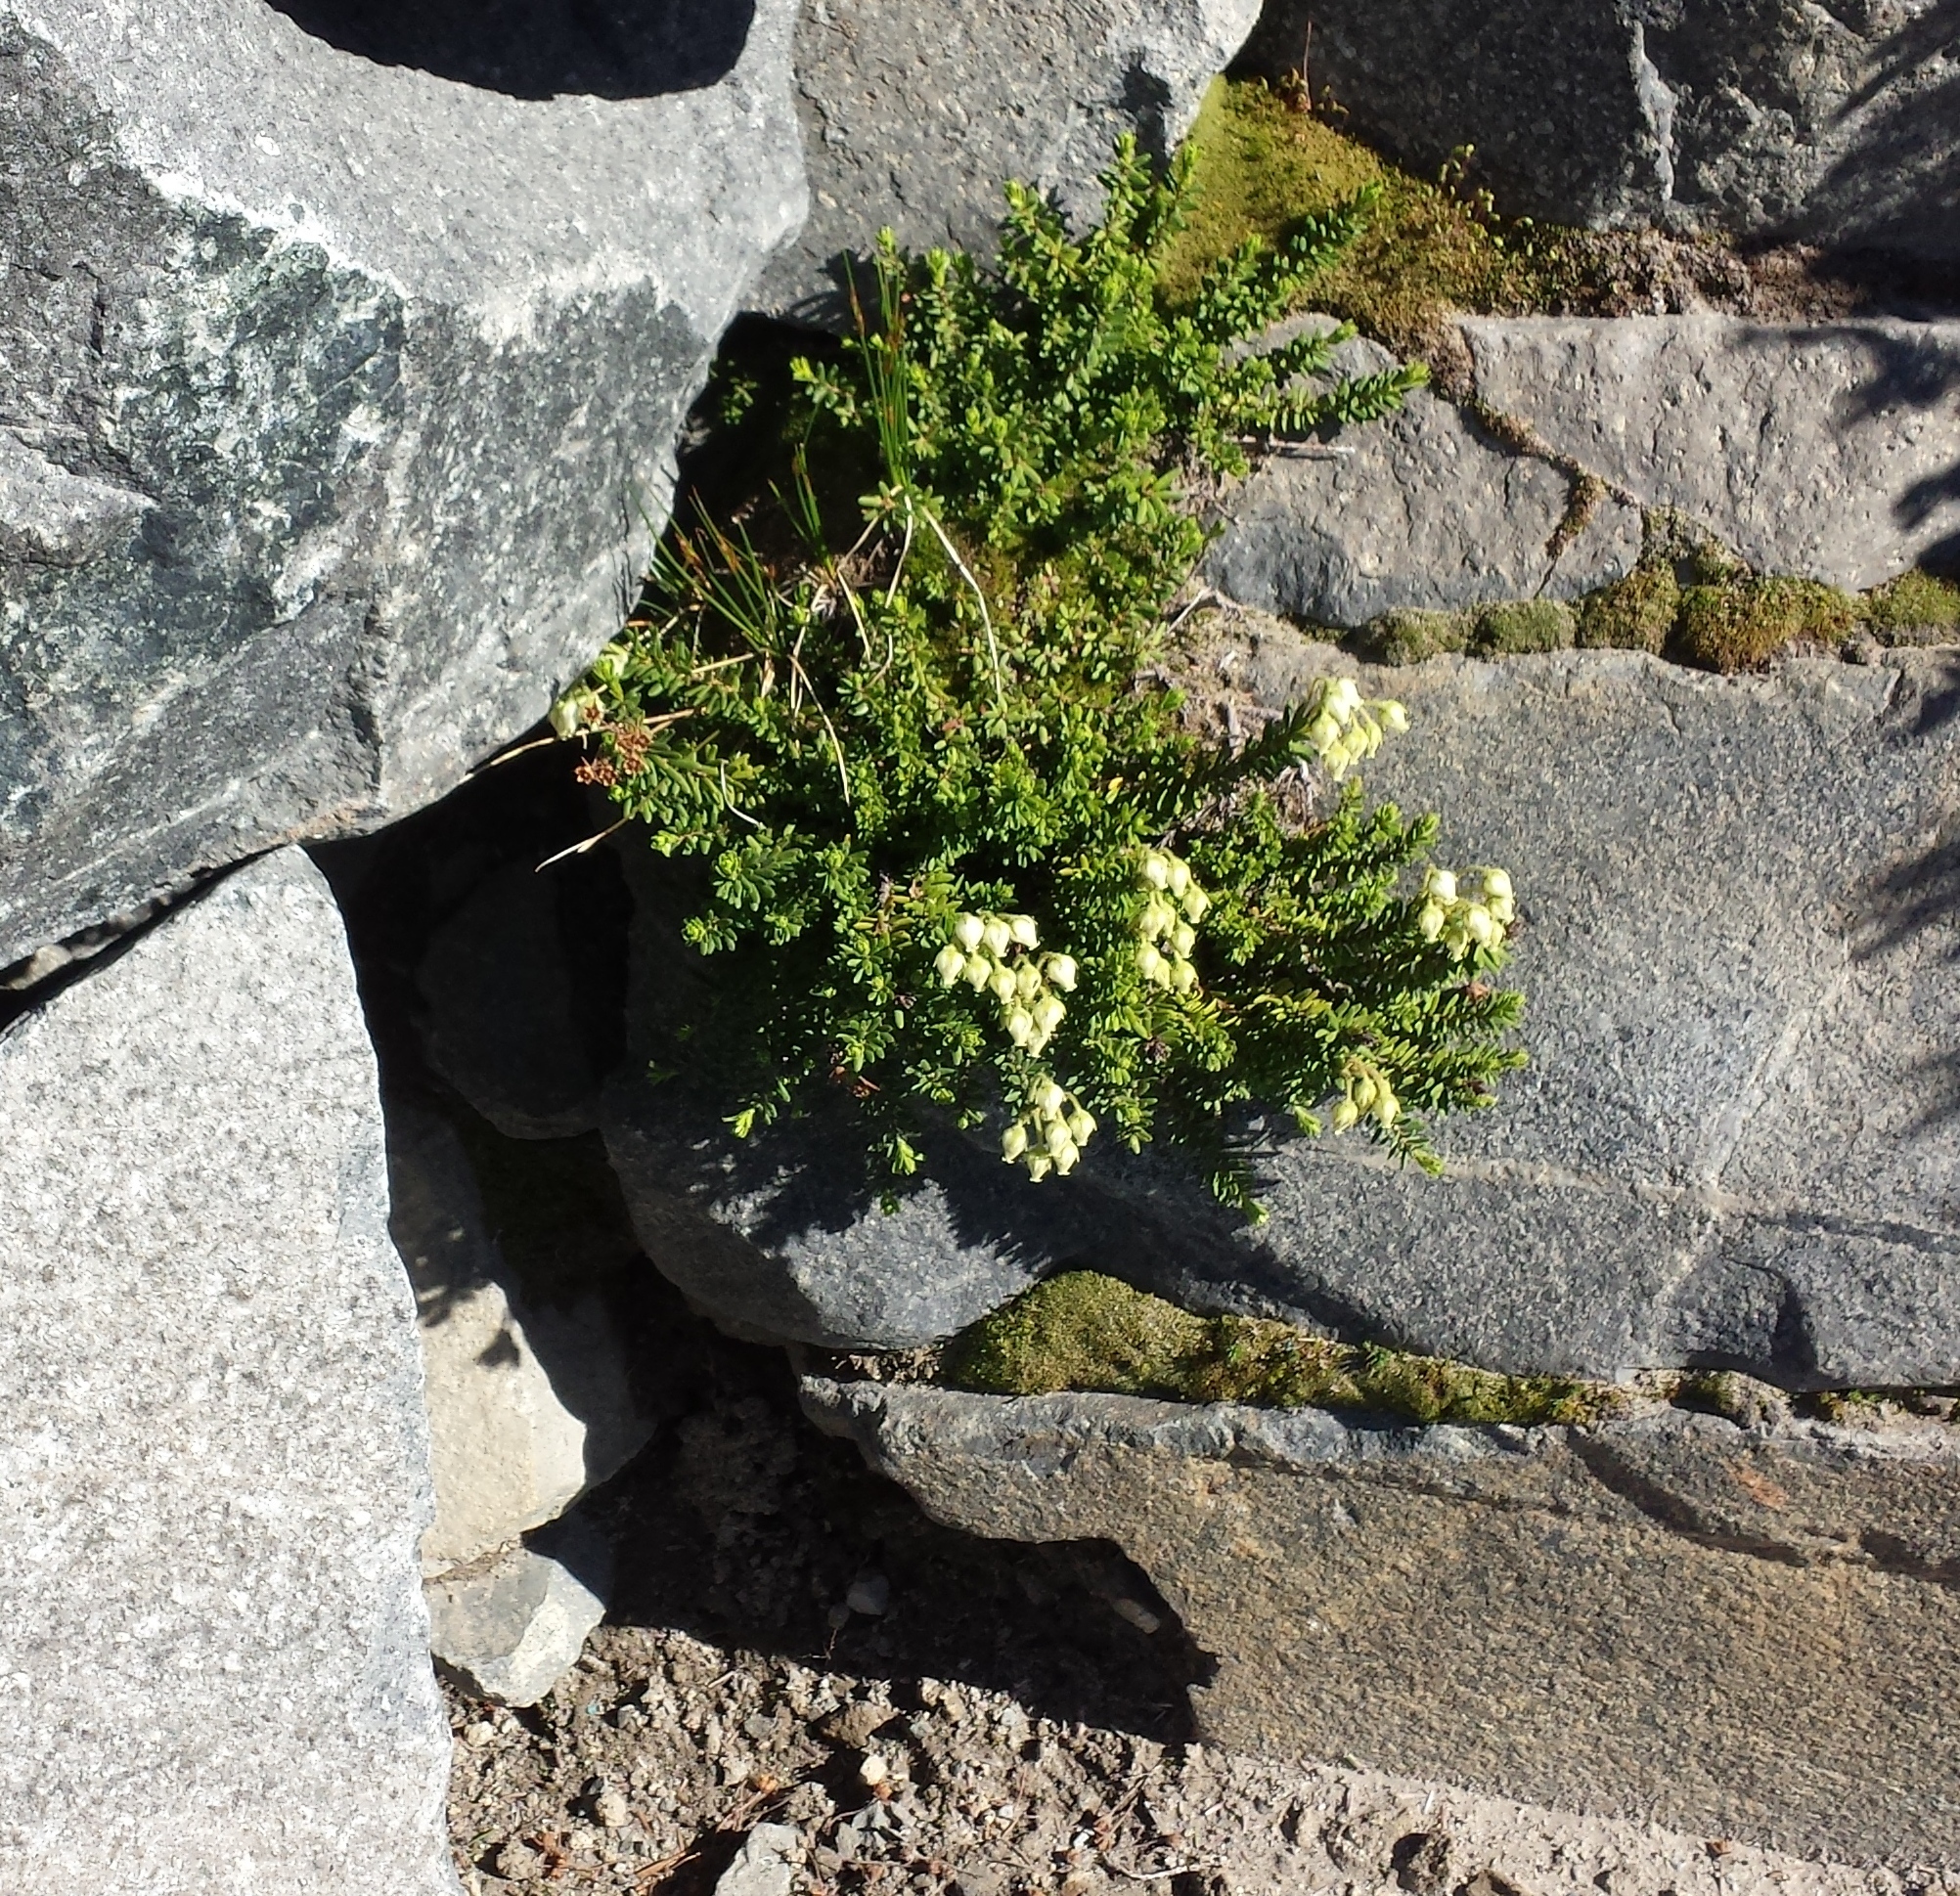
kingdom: Plantae
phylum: Tracheophyta
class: Magnoliopsida
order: Ericales
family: Ericaceae
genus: Phyllodoce
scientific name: Phyllodoce glanduliflora
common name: Cream mountain heather
